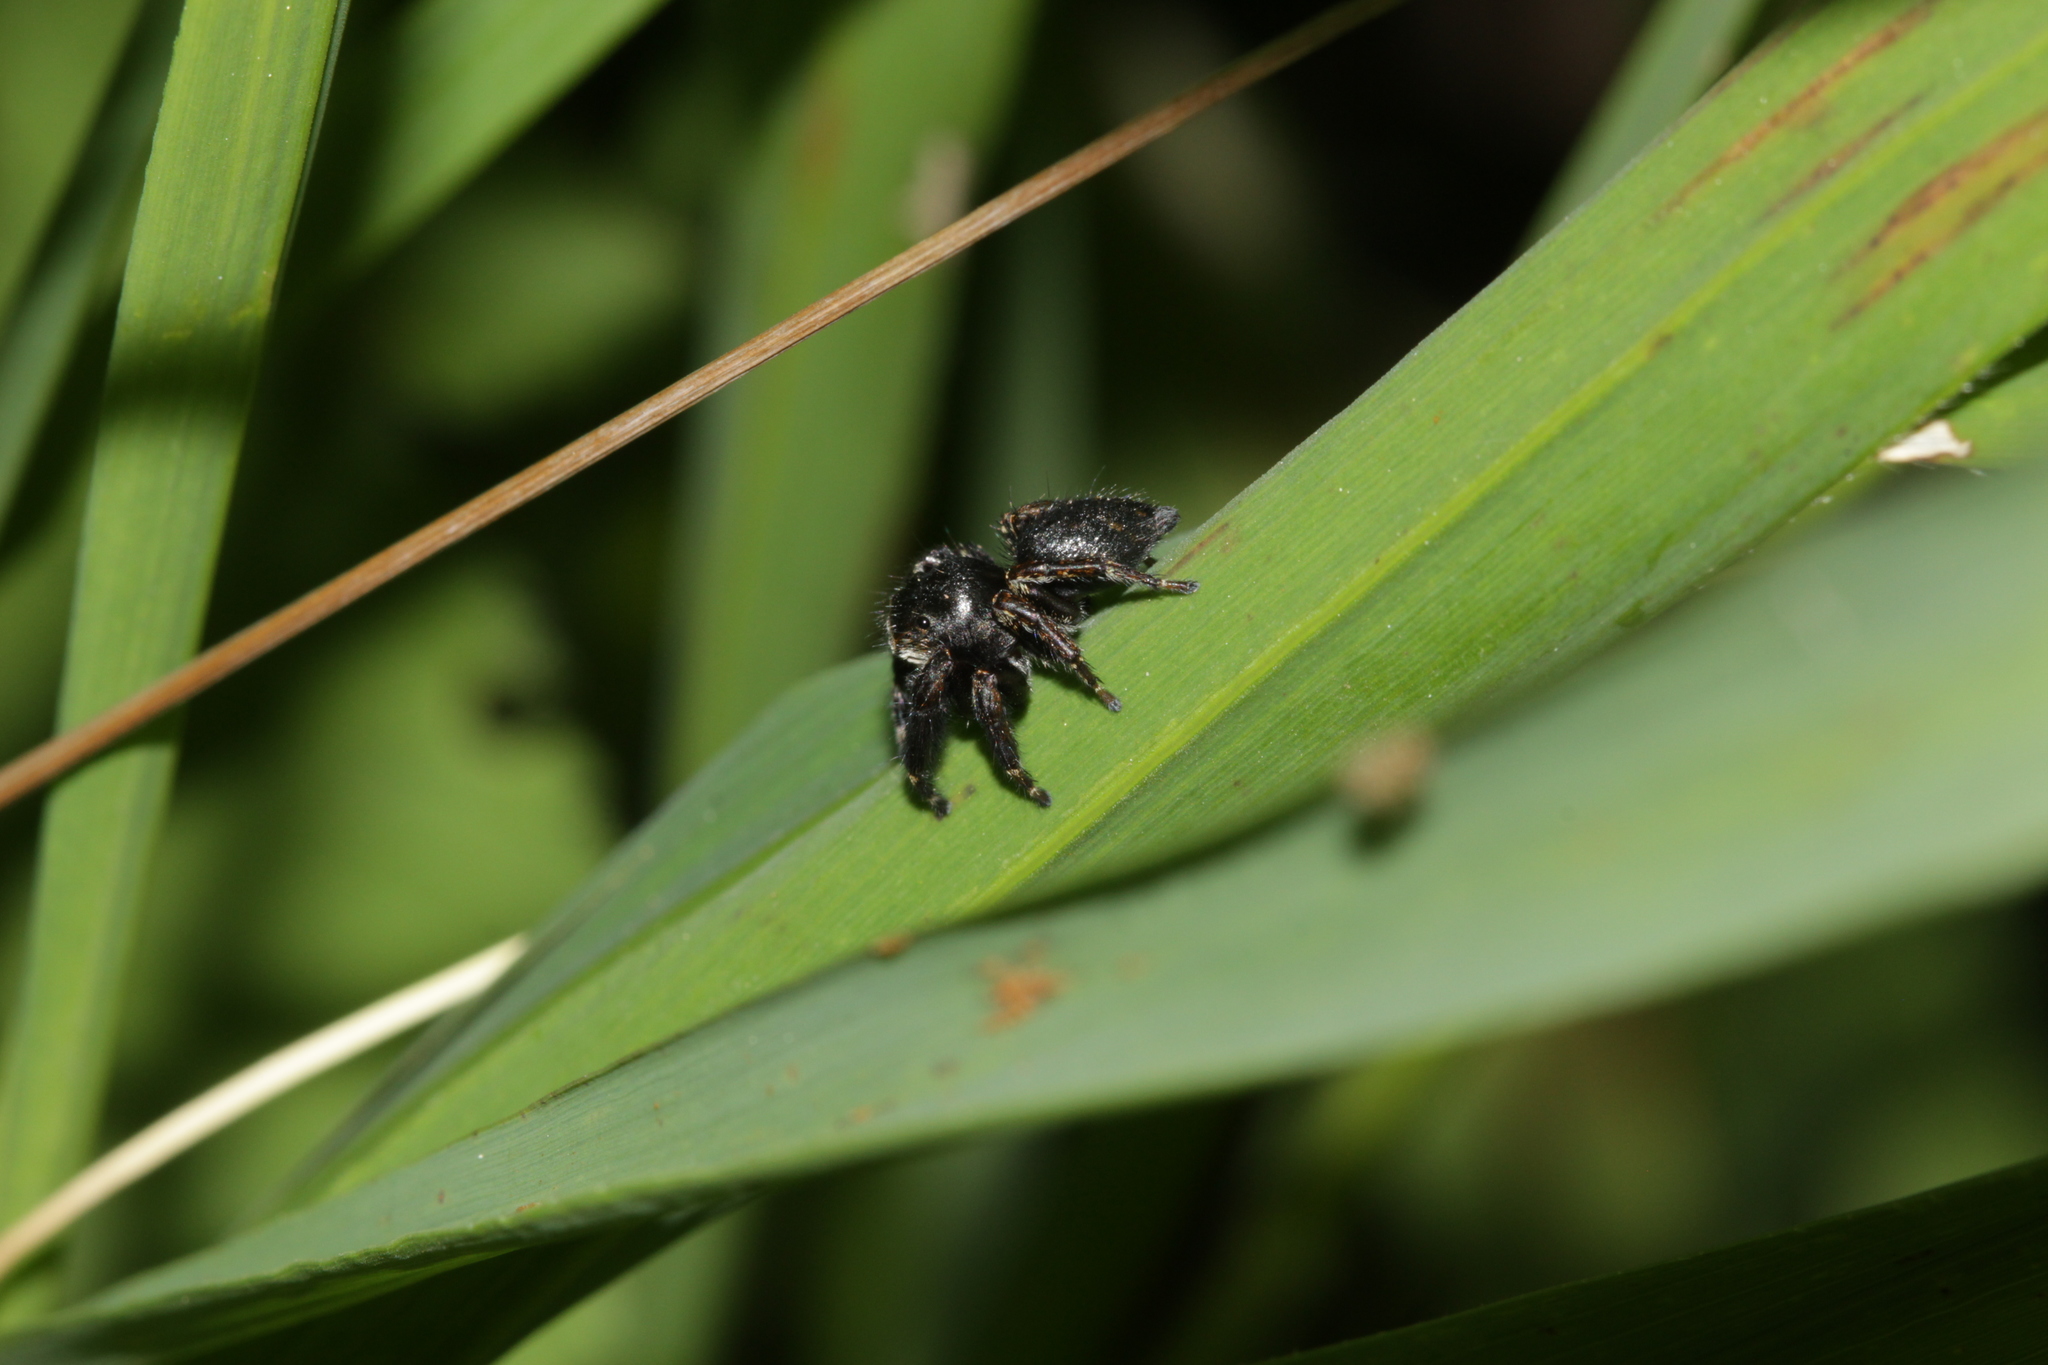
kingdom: Animalia
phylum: Arthropoda
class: Arachnida
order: Araneae
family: Salticidae
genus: Evarcha
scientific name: Evarcha arcuata
